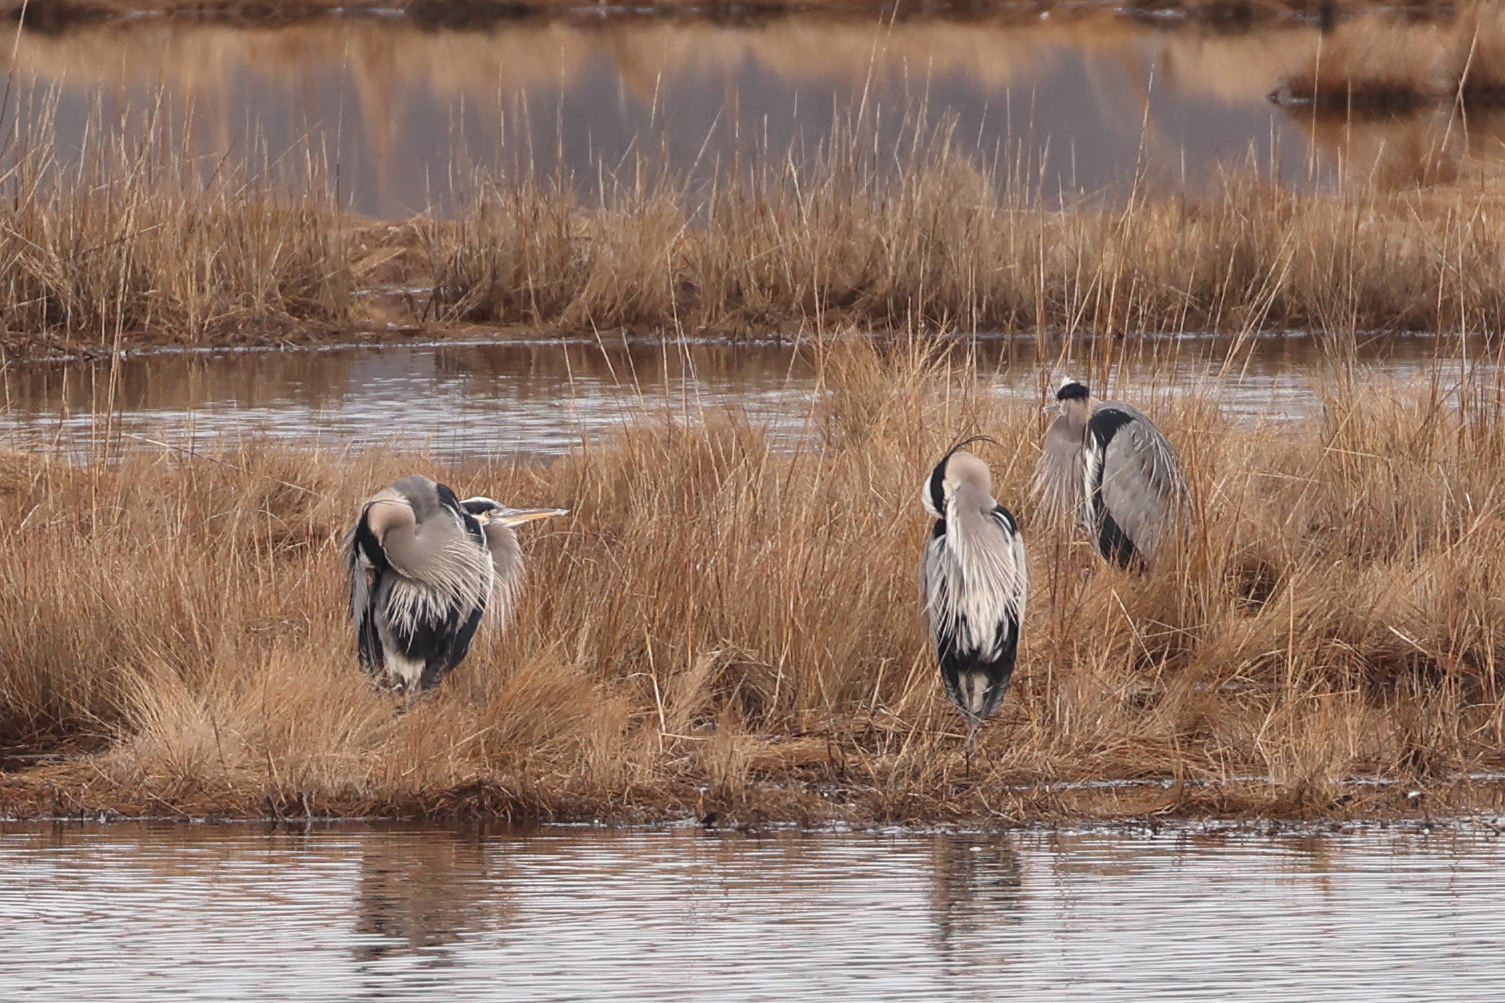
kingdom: Animalia
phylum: Chordata
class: Aves
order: Pelecaniformes
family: Ardeidae
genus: Ardea
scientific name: Ardea herodias
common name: Great blue heron
